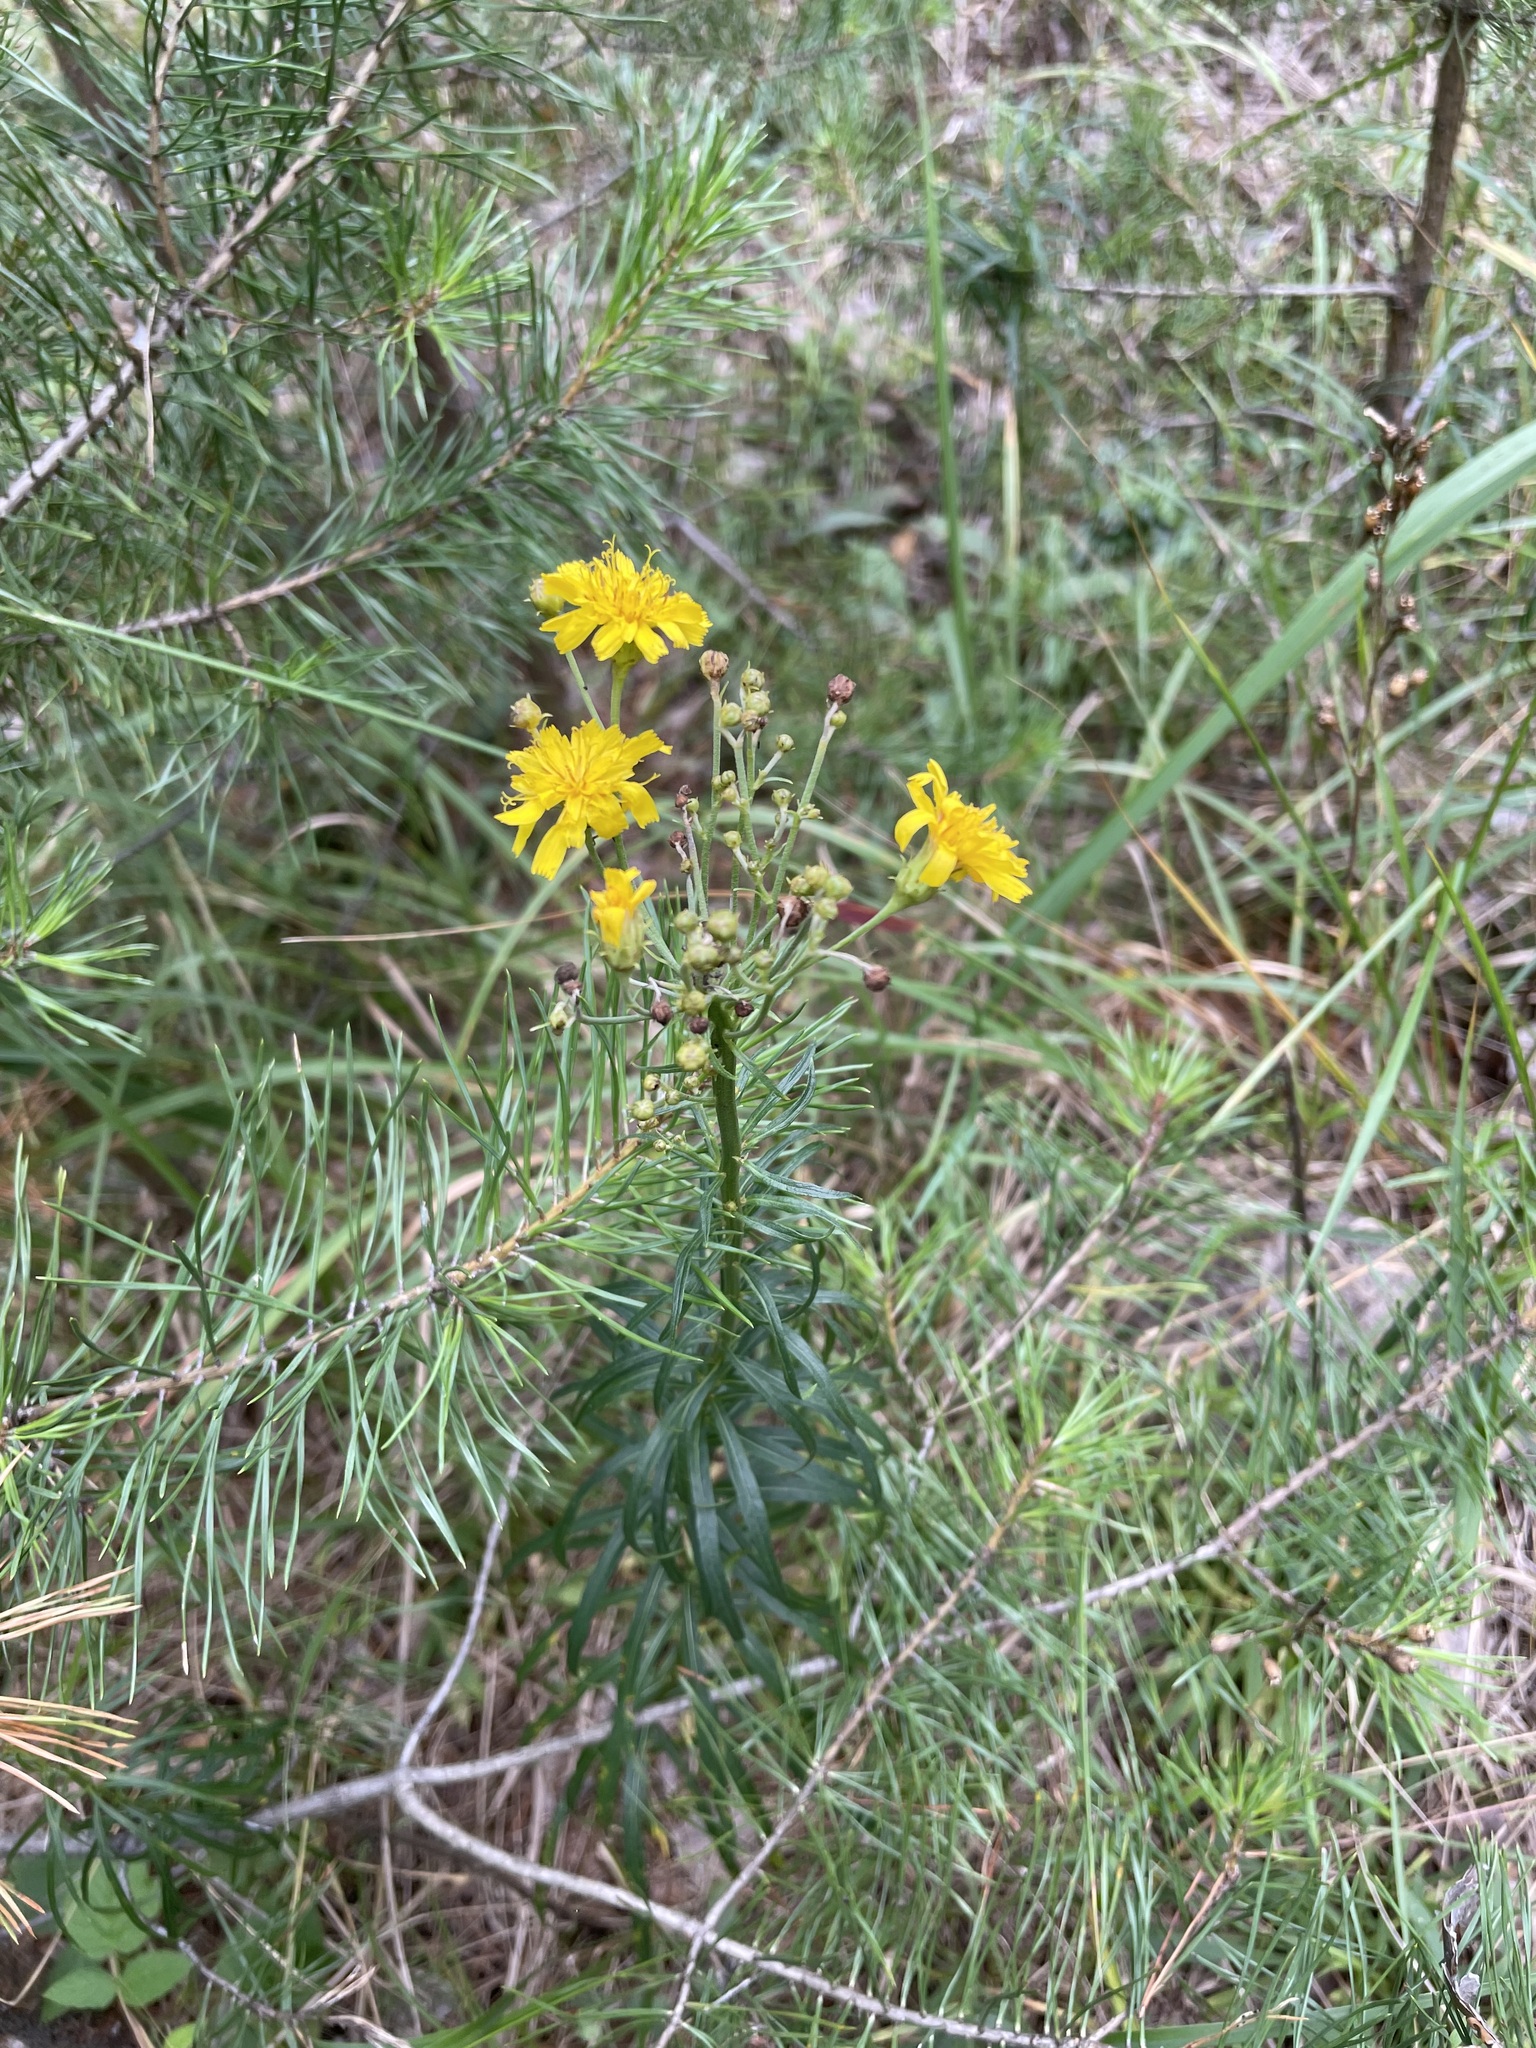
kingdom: Plantae
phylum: Tracheophyta
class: Magnoliopsida
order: Asterales
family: Asteraceae
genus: Hieracium
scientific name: Hieracium umbellatum
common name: Northern hawkweed
